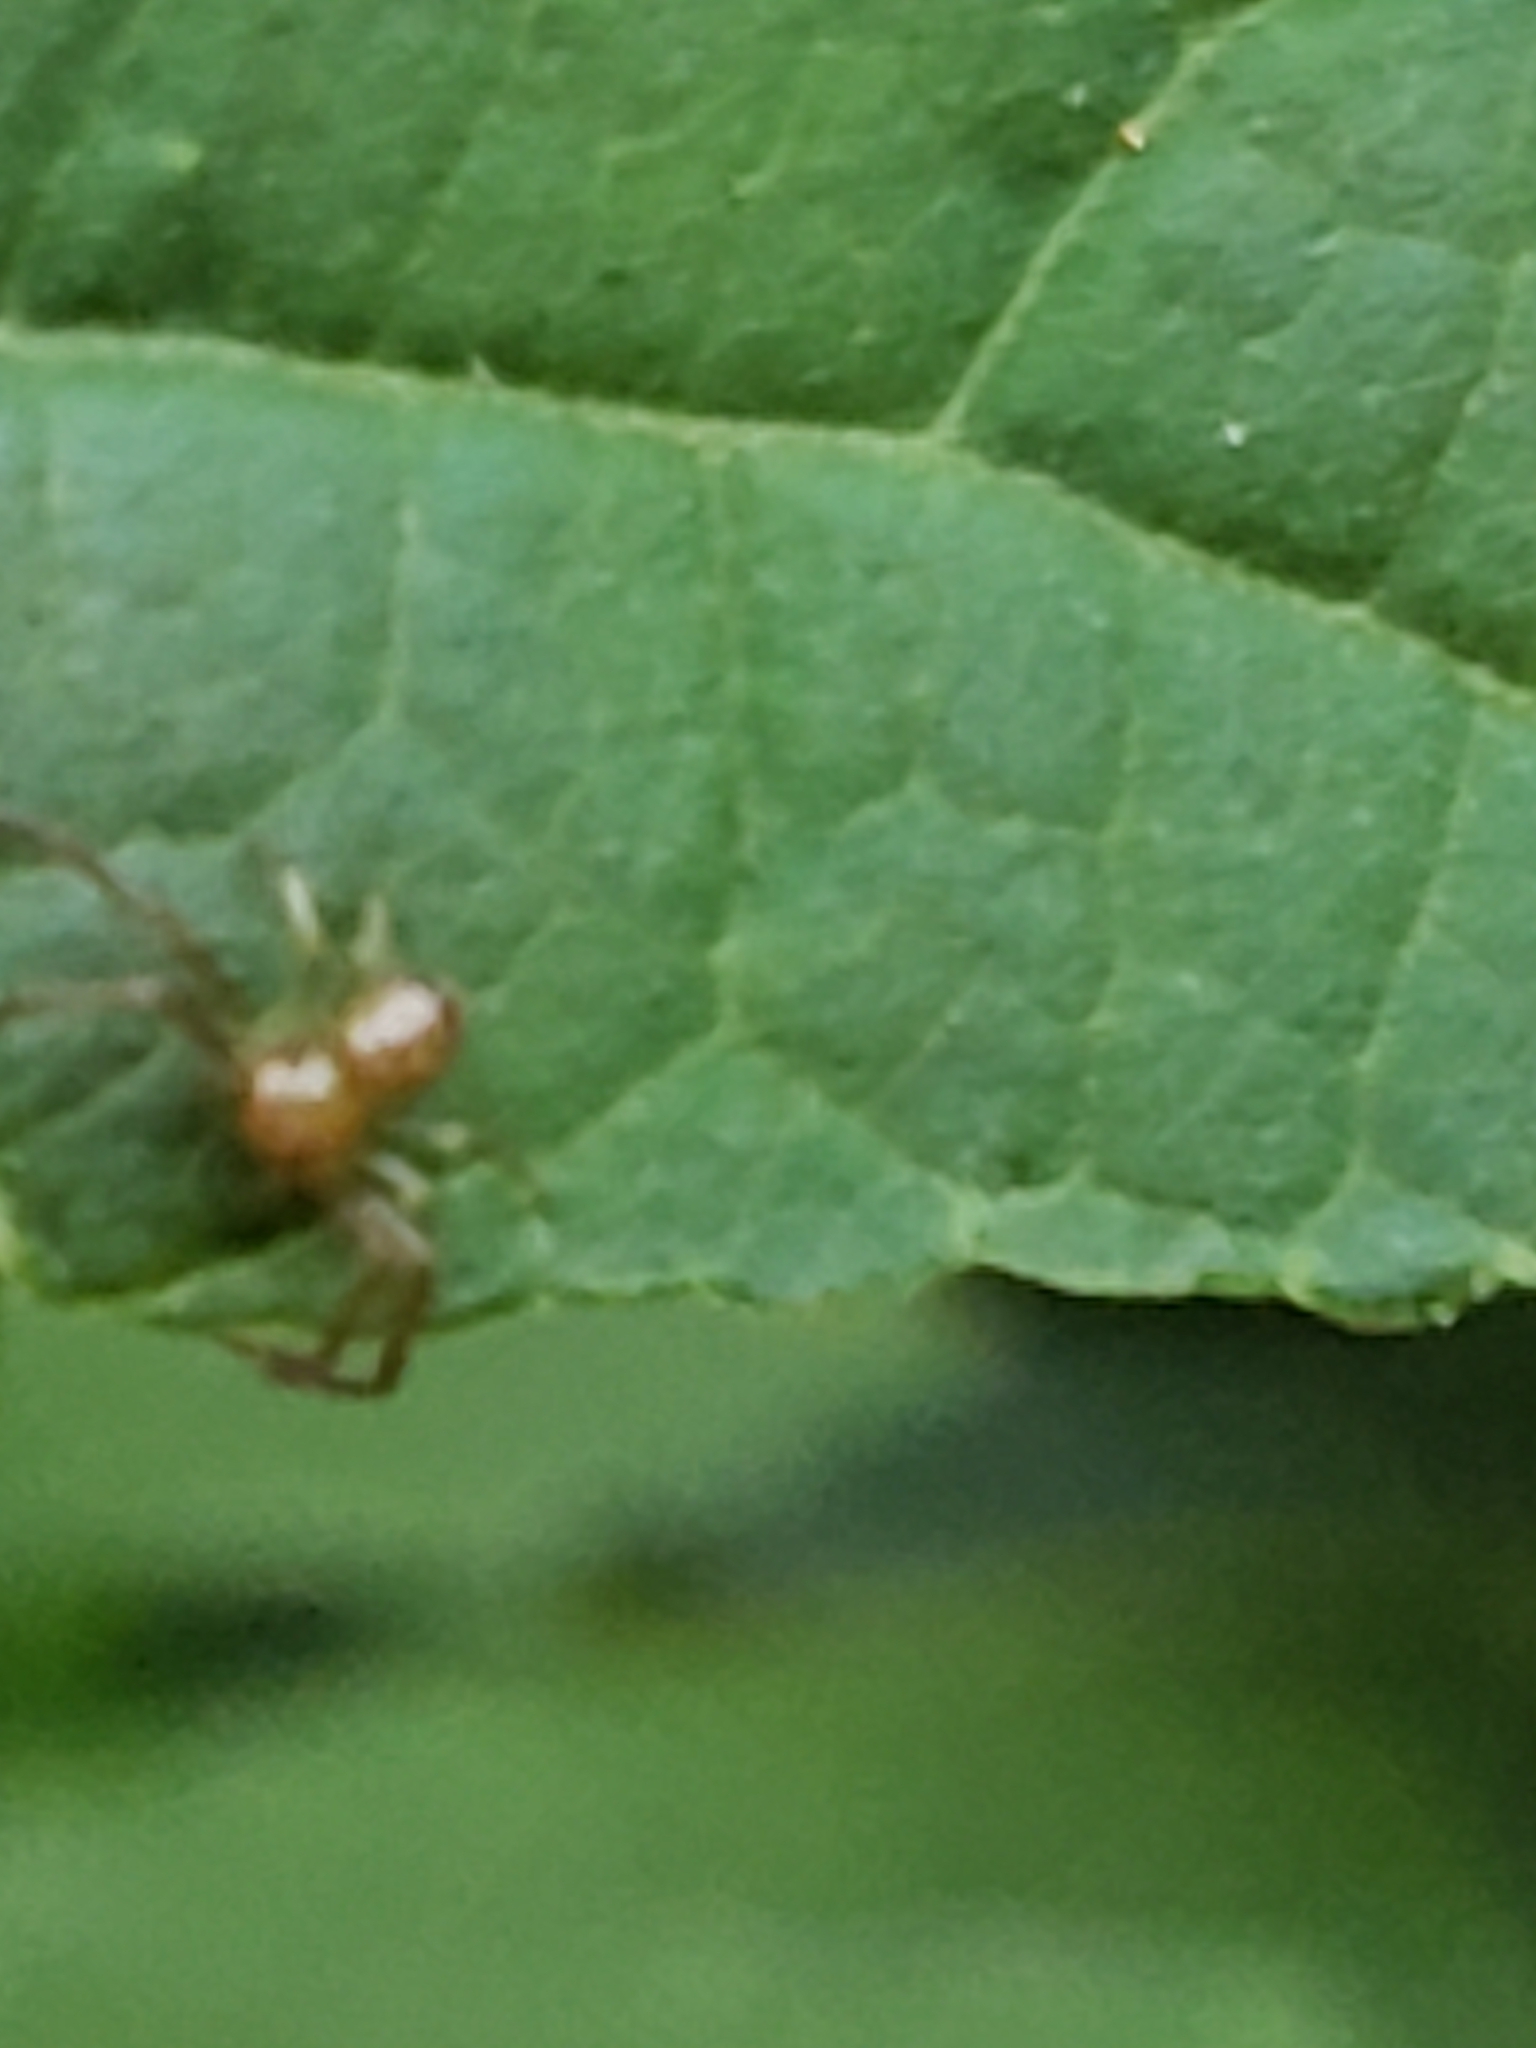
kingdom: Animalia
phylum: Arthropoda
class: Arachnida
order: Araneae
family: Thomisidae
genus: Synema
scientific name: Synema parvulum
